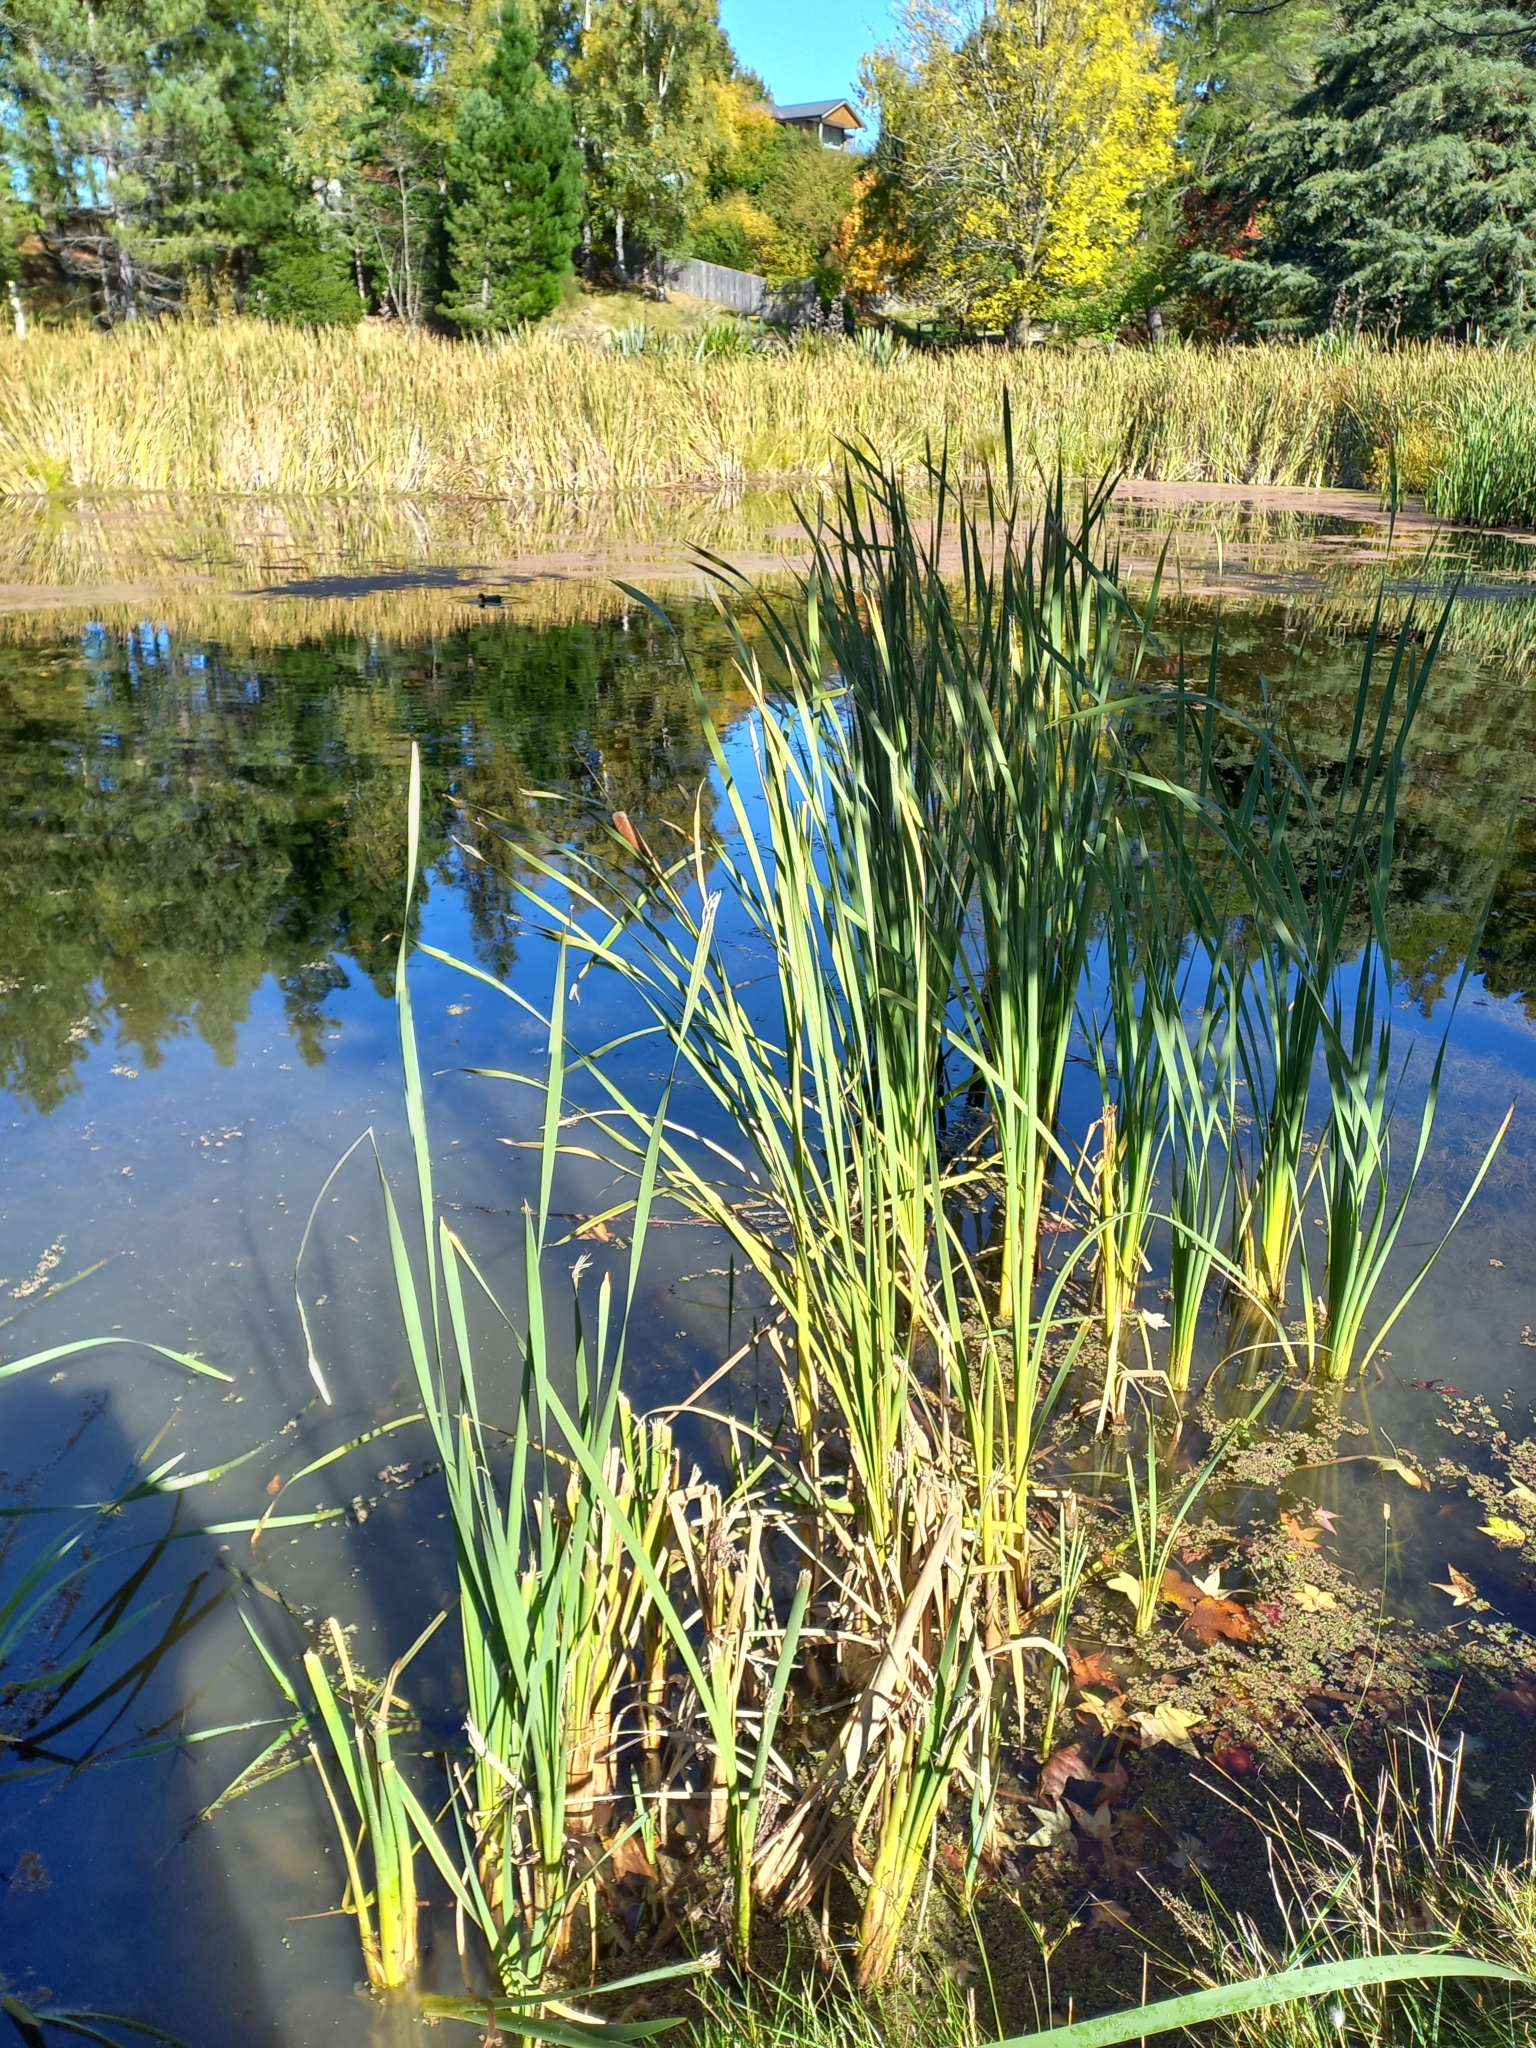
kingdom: Plantae
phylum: Tracheophyta
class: Liliopsida
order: Poales
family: Typhaceae
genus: Typha
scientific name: Typha orientalis
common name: Bullrush
